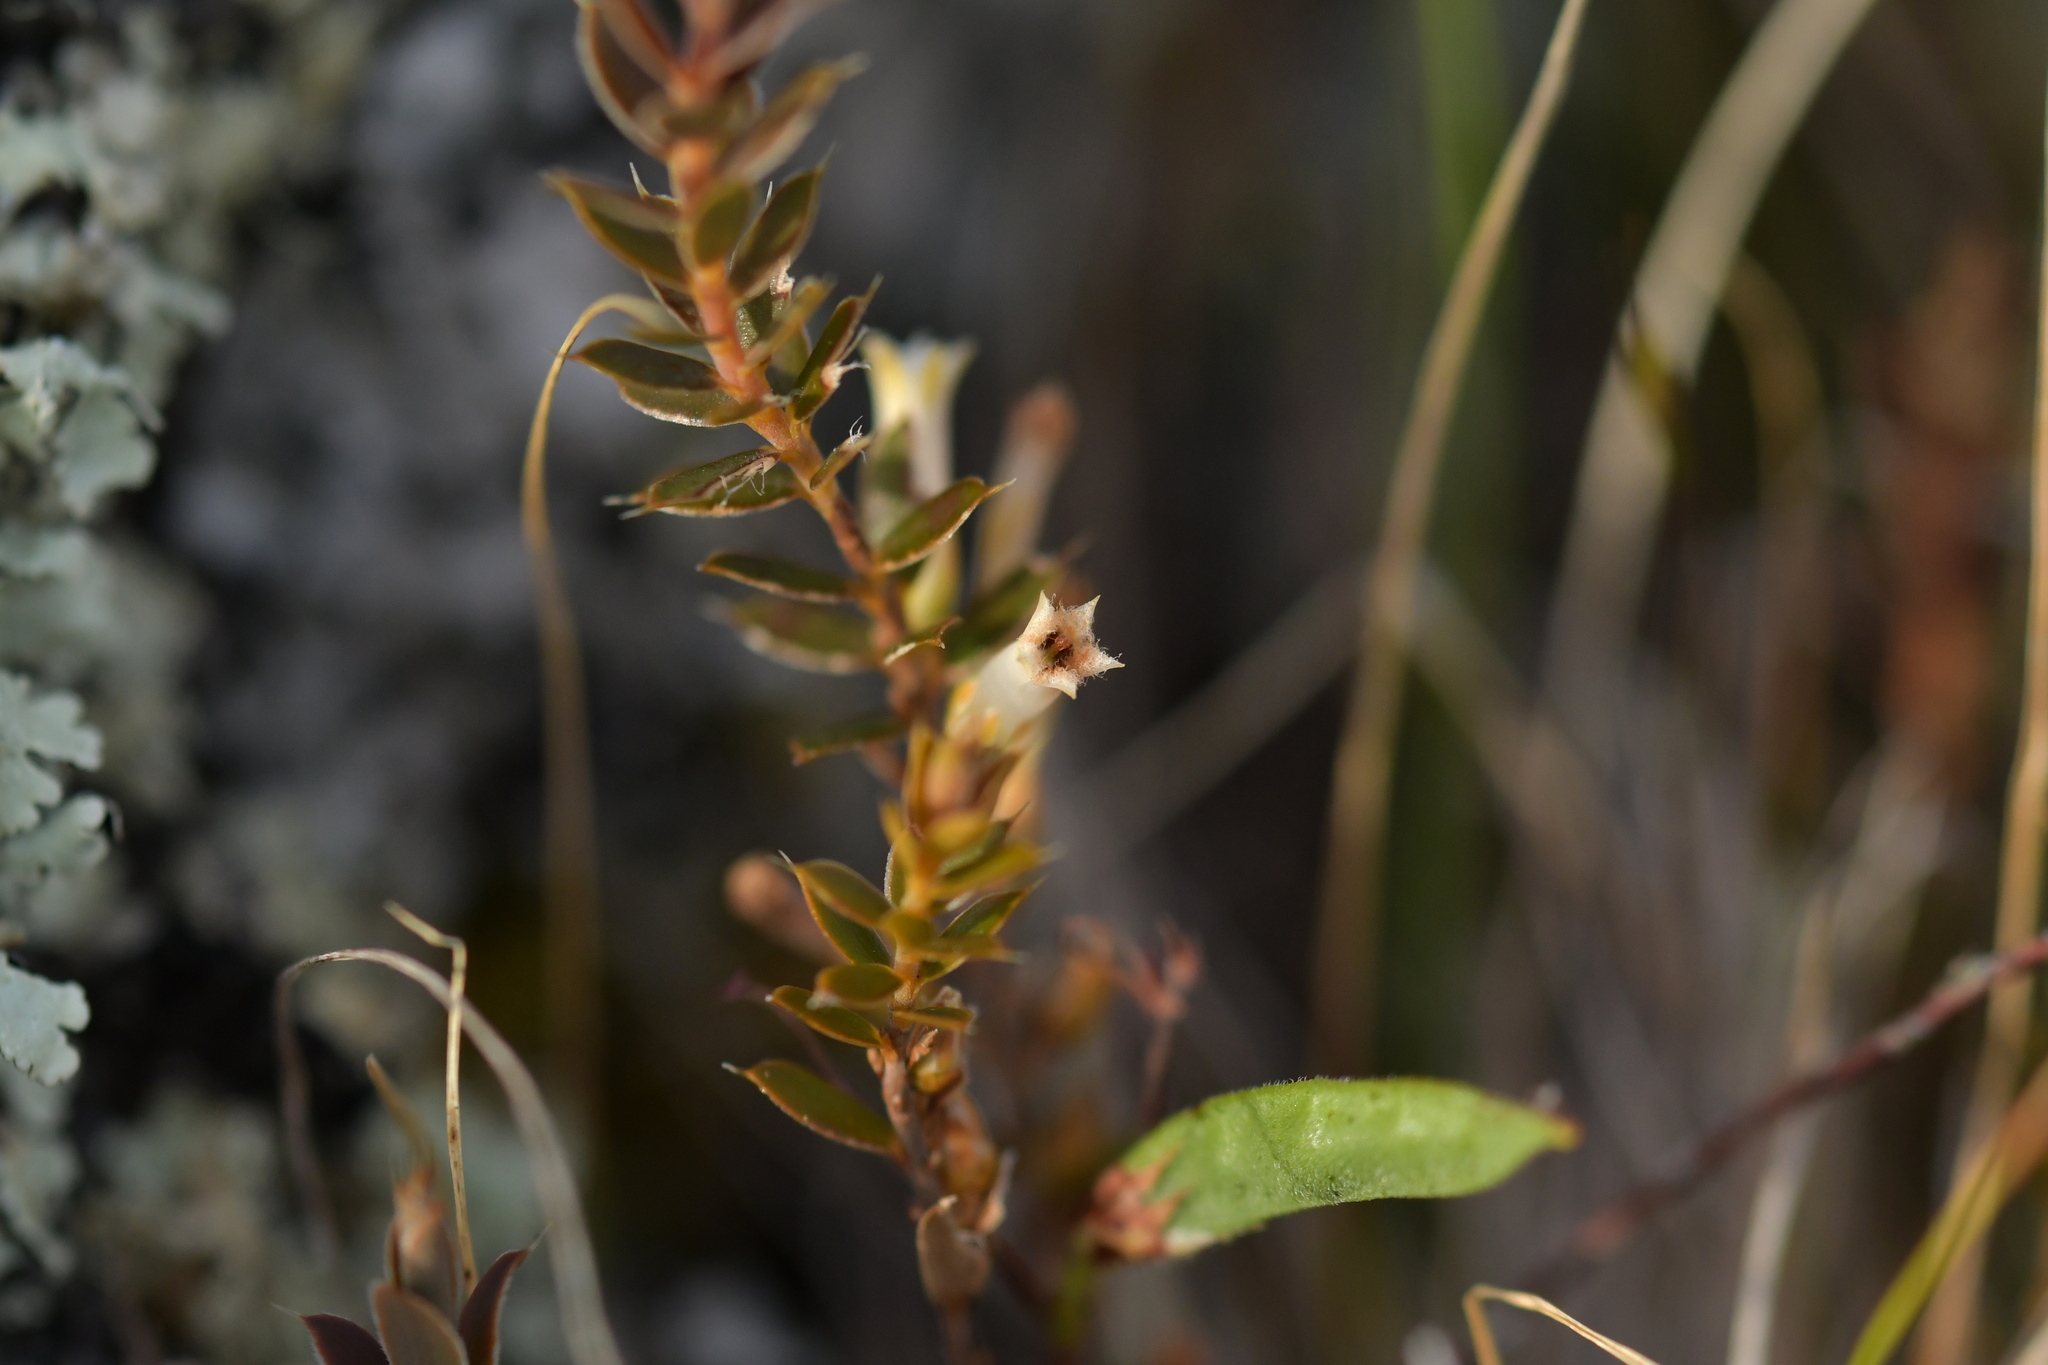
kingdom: Plantae
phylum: Tracheophyta
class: Magnoliopsida
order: Ericales
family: Ericaceae
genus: Styphelia
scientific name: Styphelia nesophila
